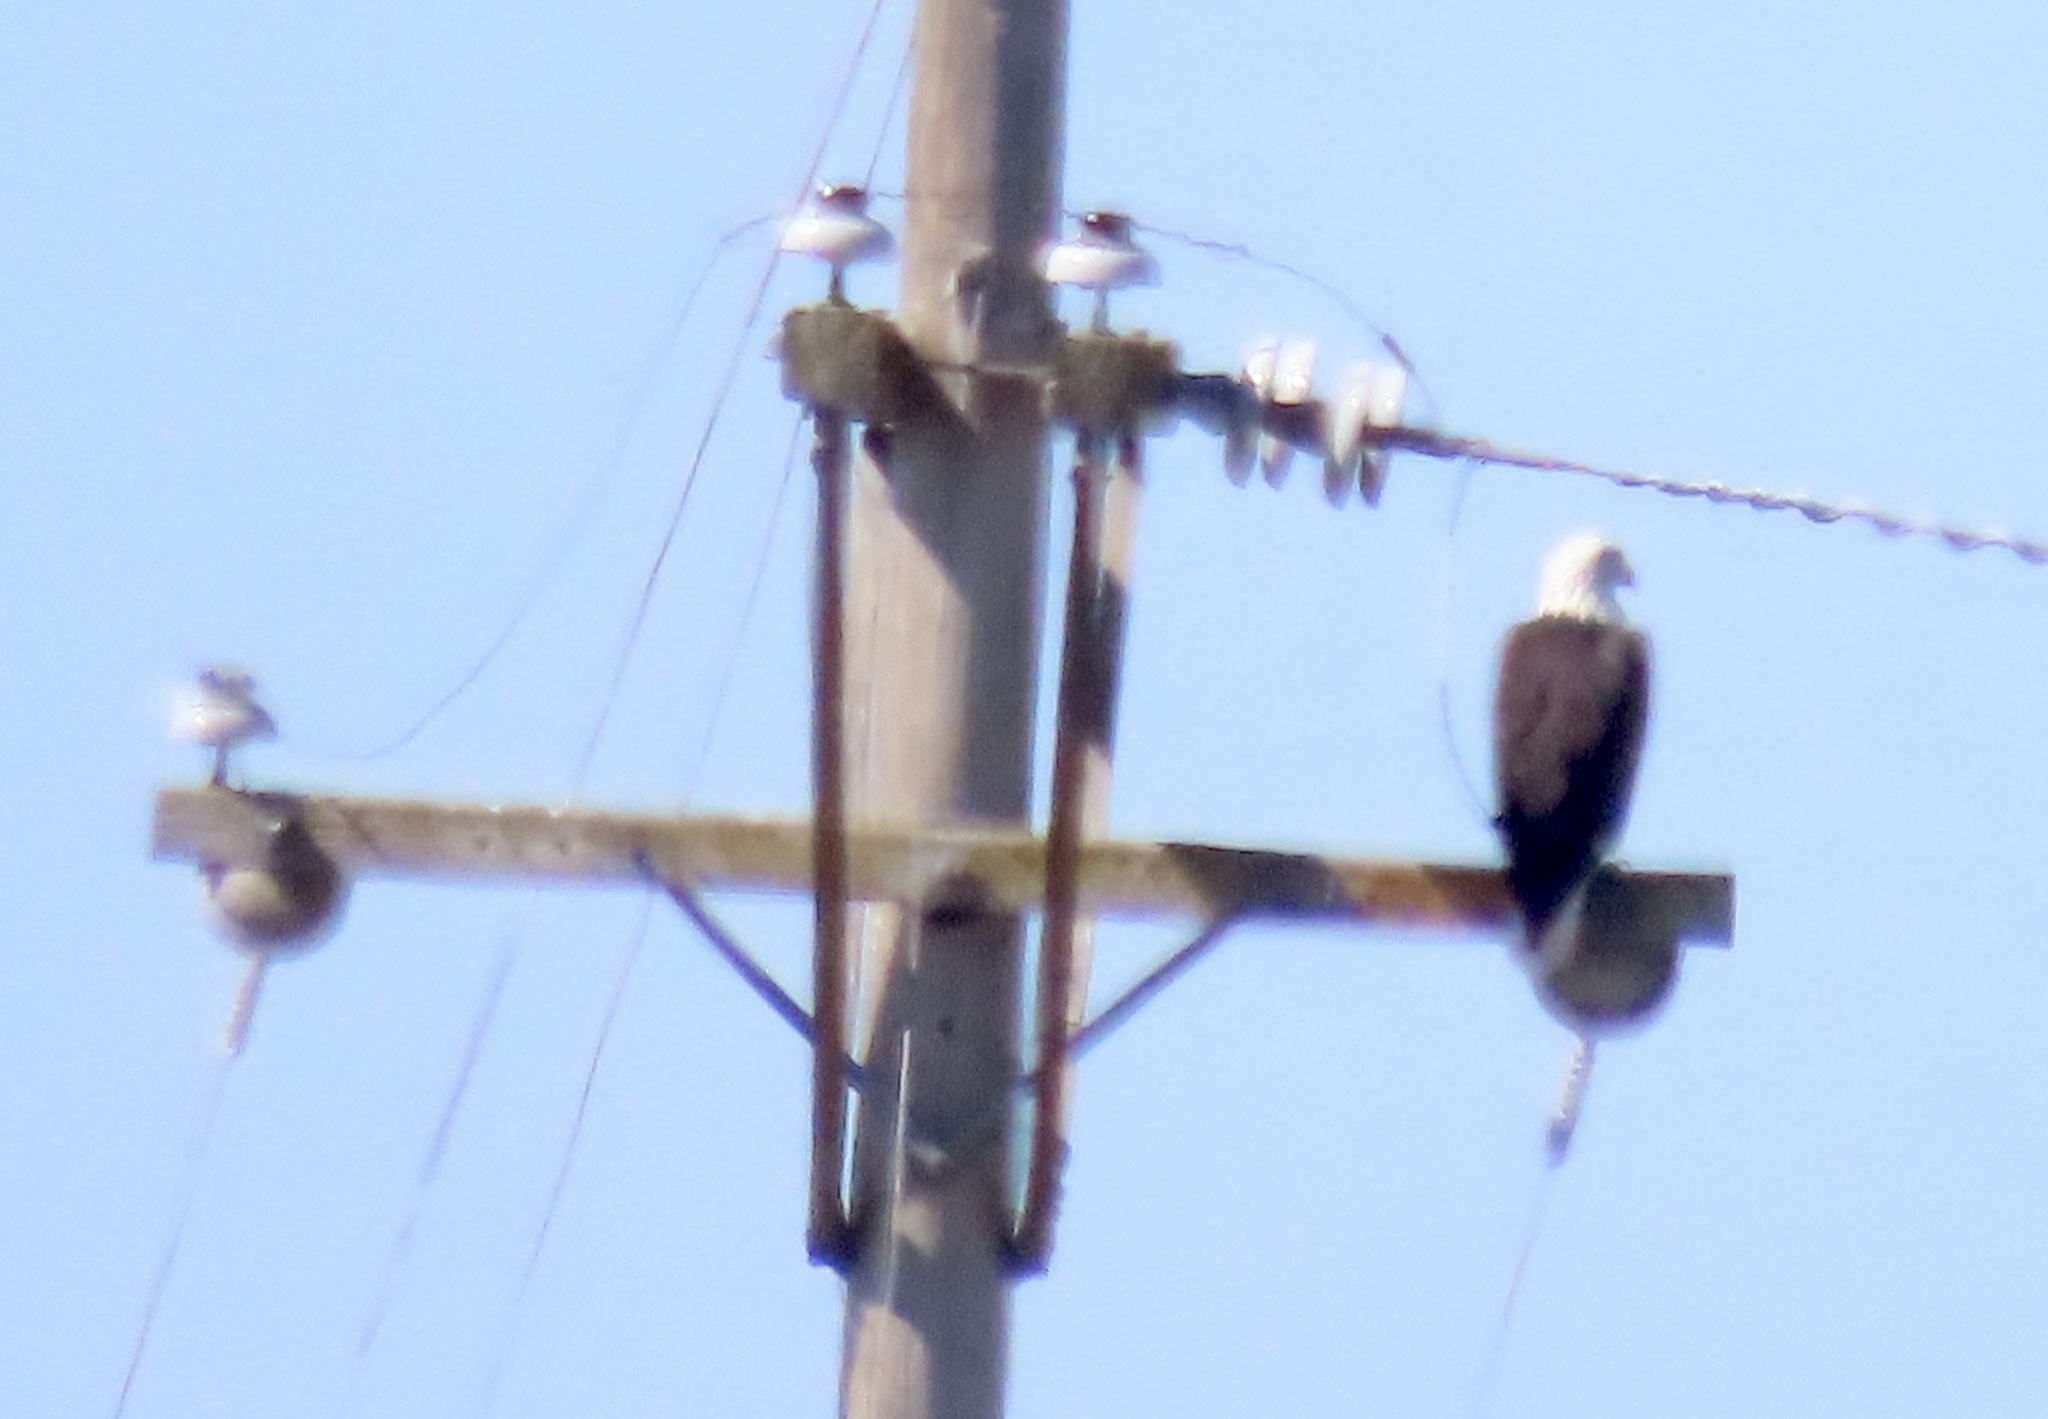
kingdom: Animalia
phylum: Chordata
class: Aves
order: Accipitriformes
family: Accipitridae
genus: Haliaeetus
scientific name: Haliaeetus leucocephalus
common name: Bald eagle
